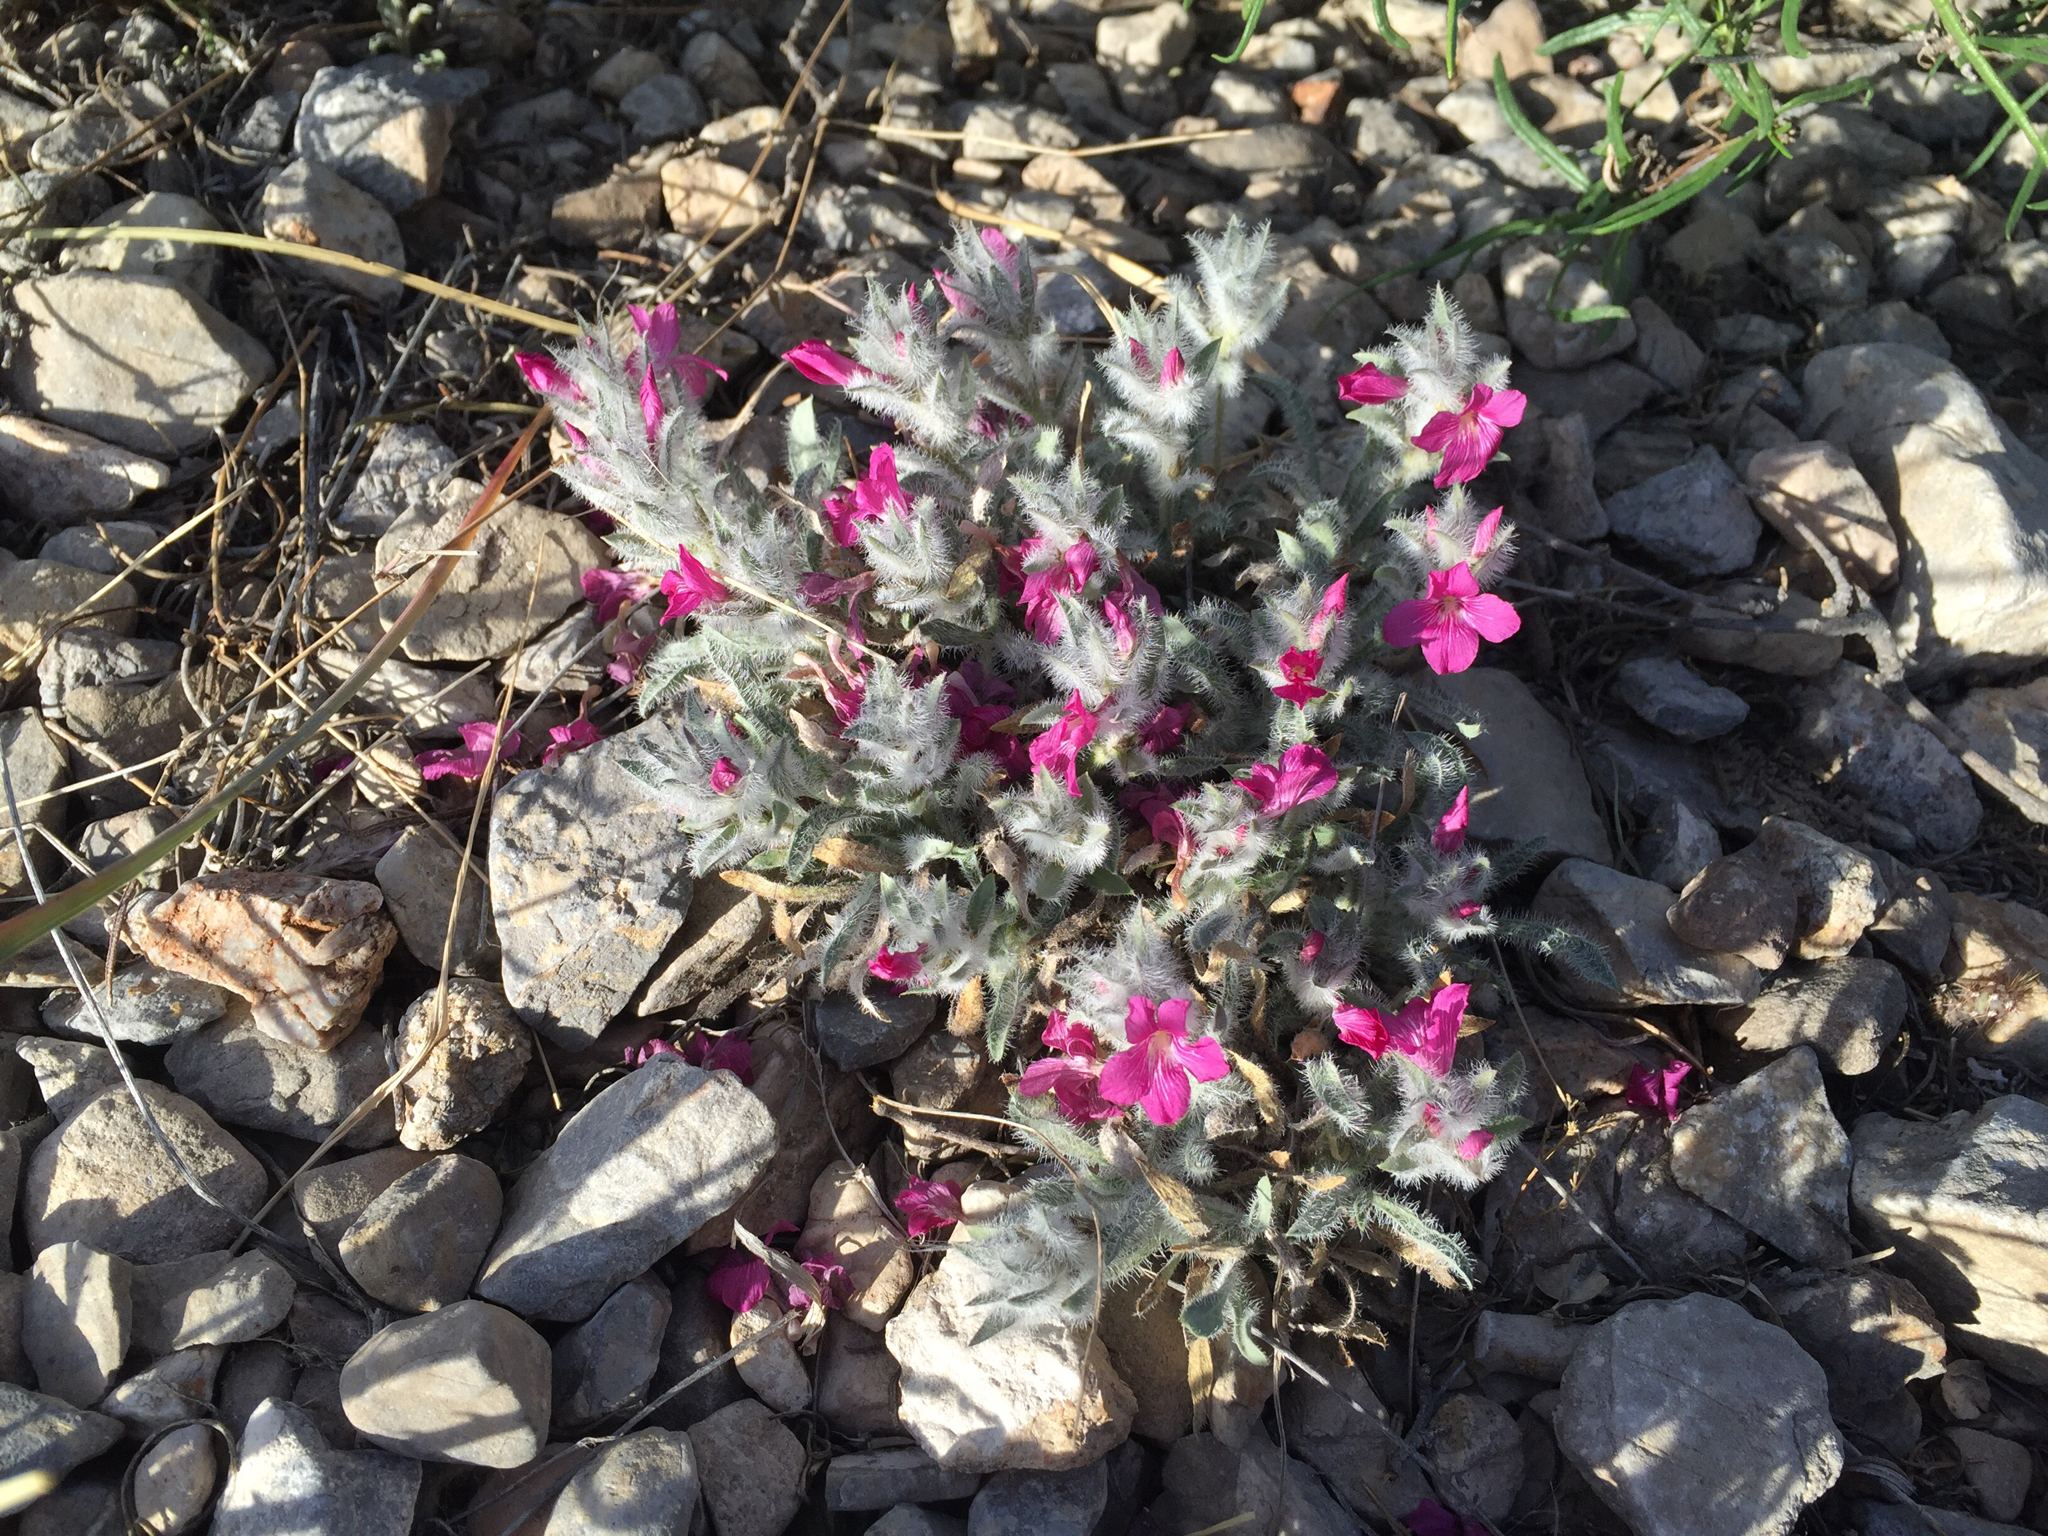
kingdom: Plantae
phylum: Tracheophyta
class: Magnoliopsida
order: Lamiales
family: Acanthaceae
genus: Stenandrium
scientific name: Stenandrium barbatum
